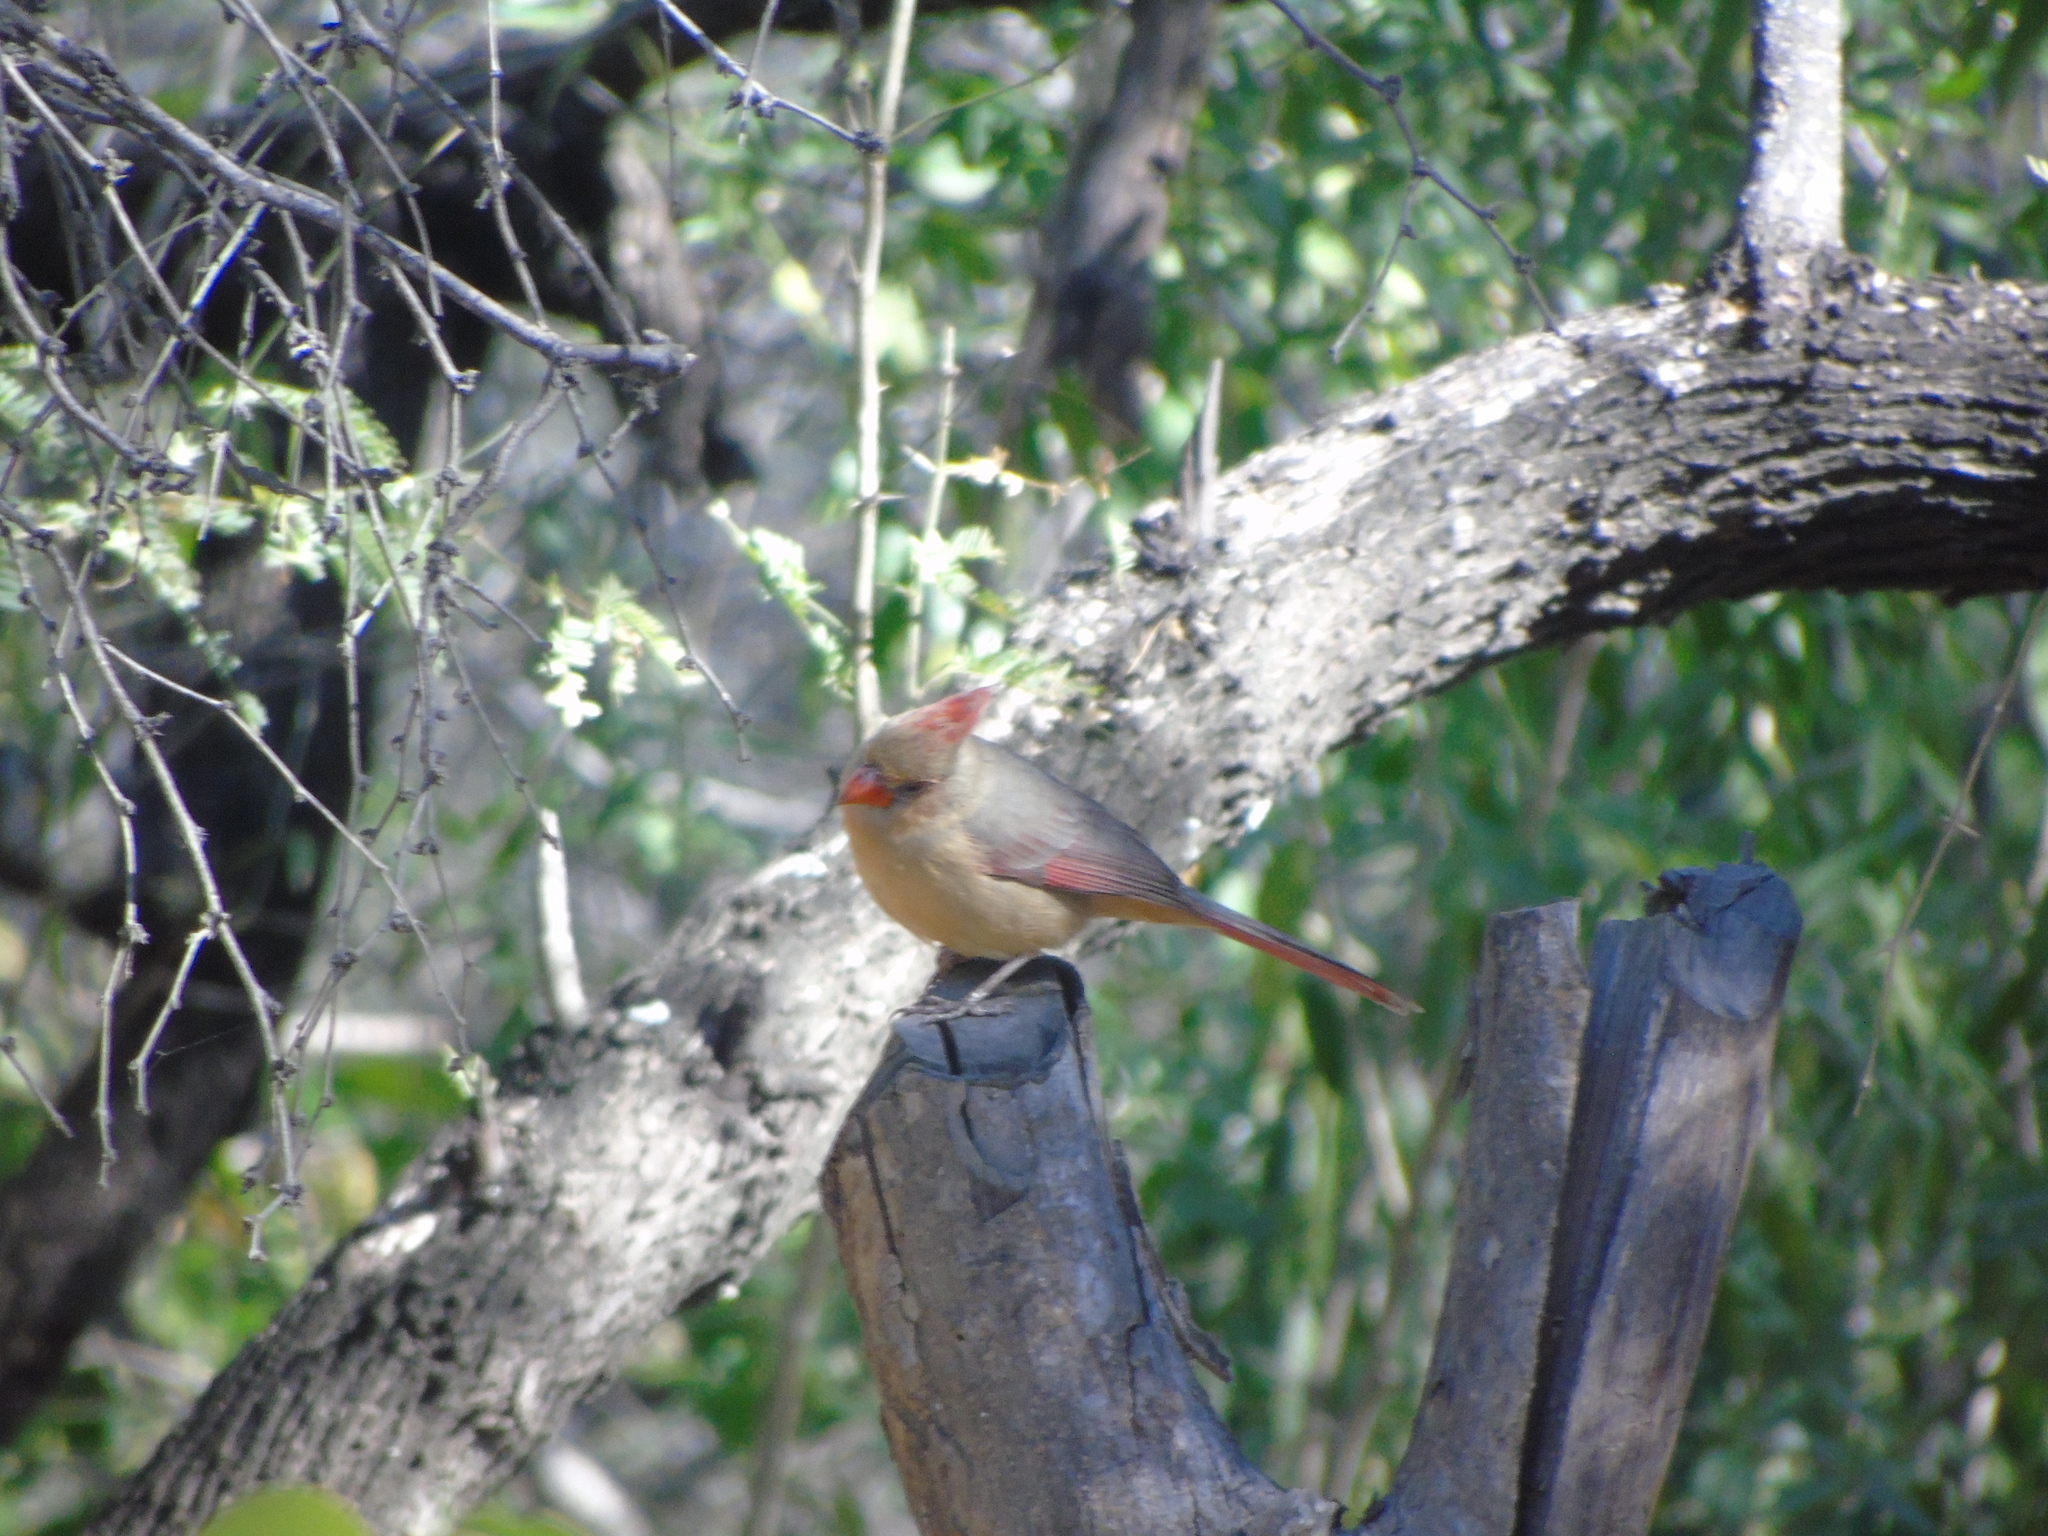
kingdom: Animalia
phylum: Chordata
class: Aves
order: Passeriformes
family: Cardinalidae
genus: Cardinalis
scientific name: Cardinalis cardinalis
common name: Northern cardinal
